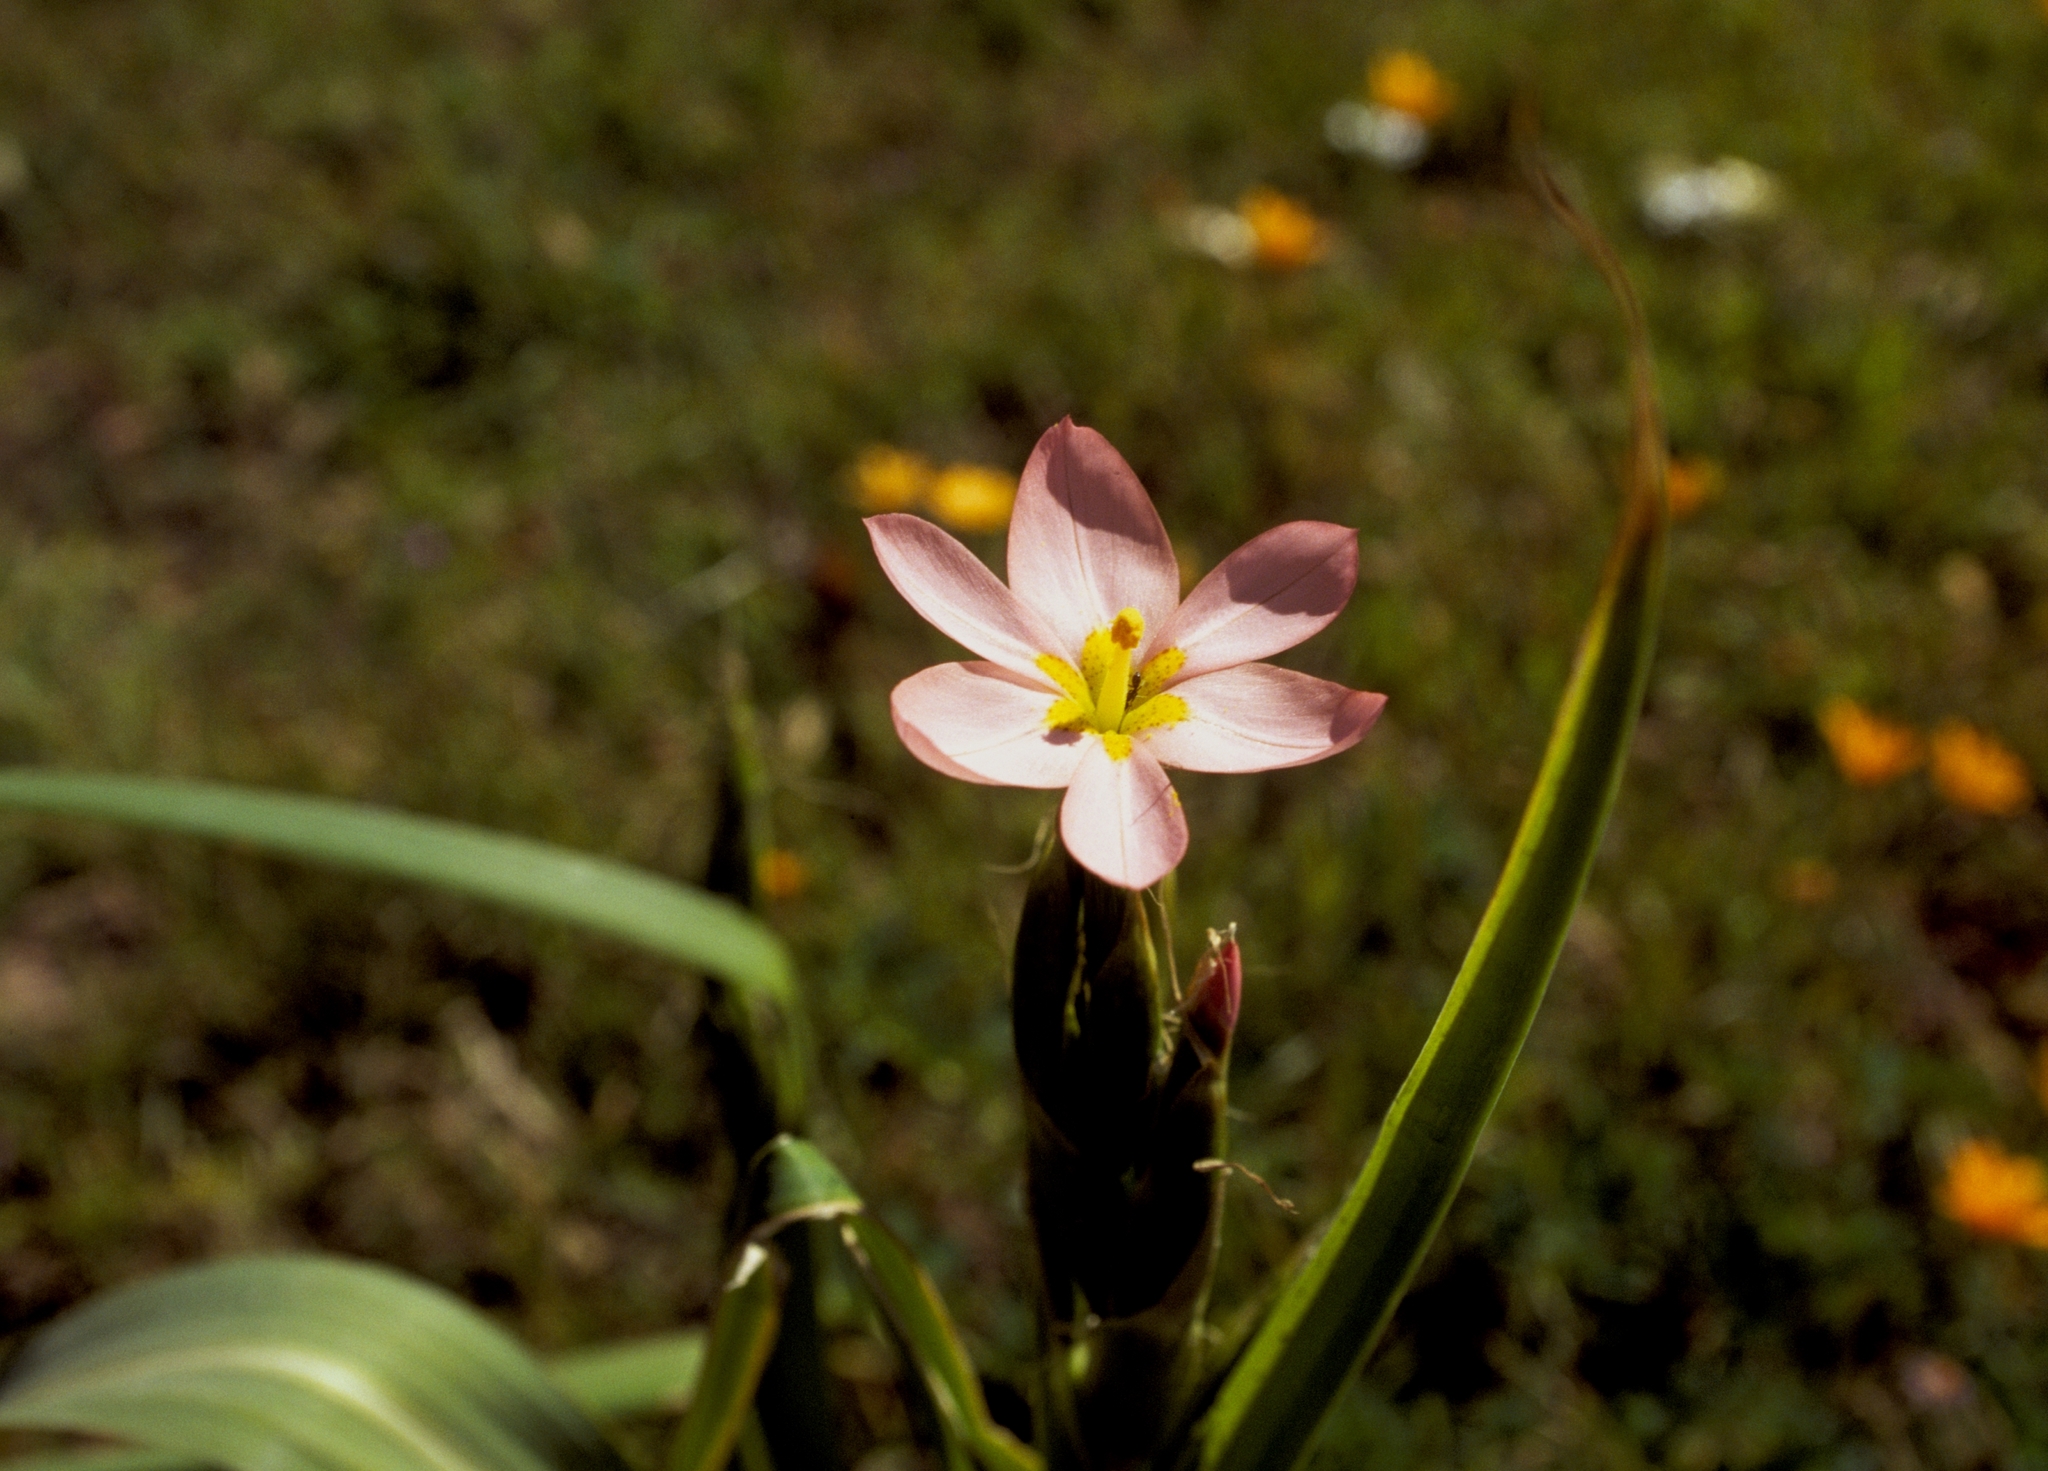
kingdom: Plantae
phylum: Tracheophyta
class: Liliopsida
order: Asparagales
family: Iridaceae
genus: Moraea
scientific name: Moraea miniata
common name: Two-leaf cape-tulip
